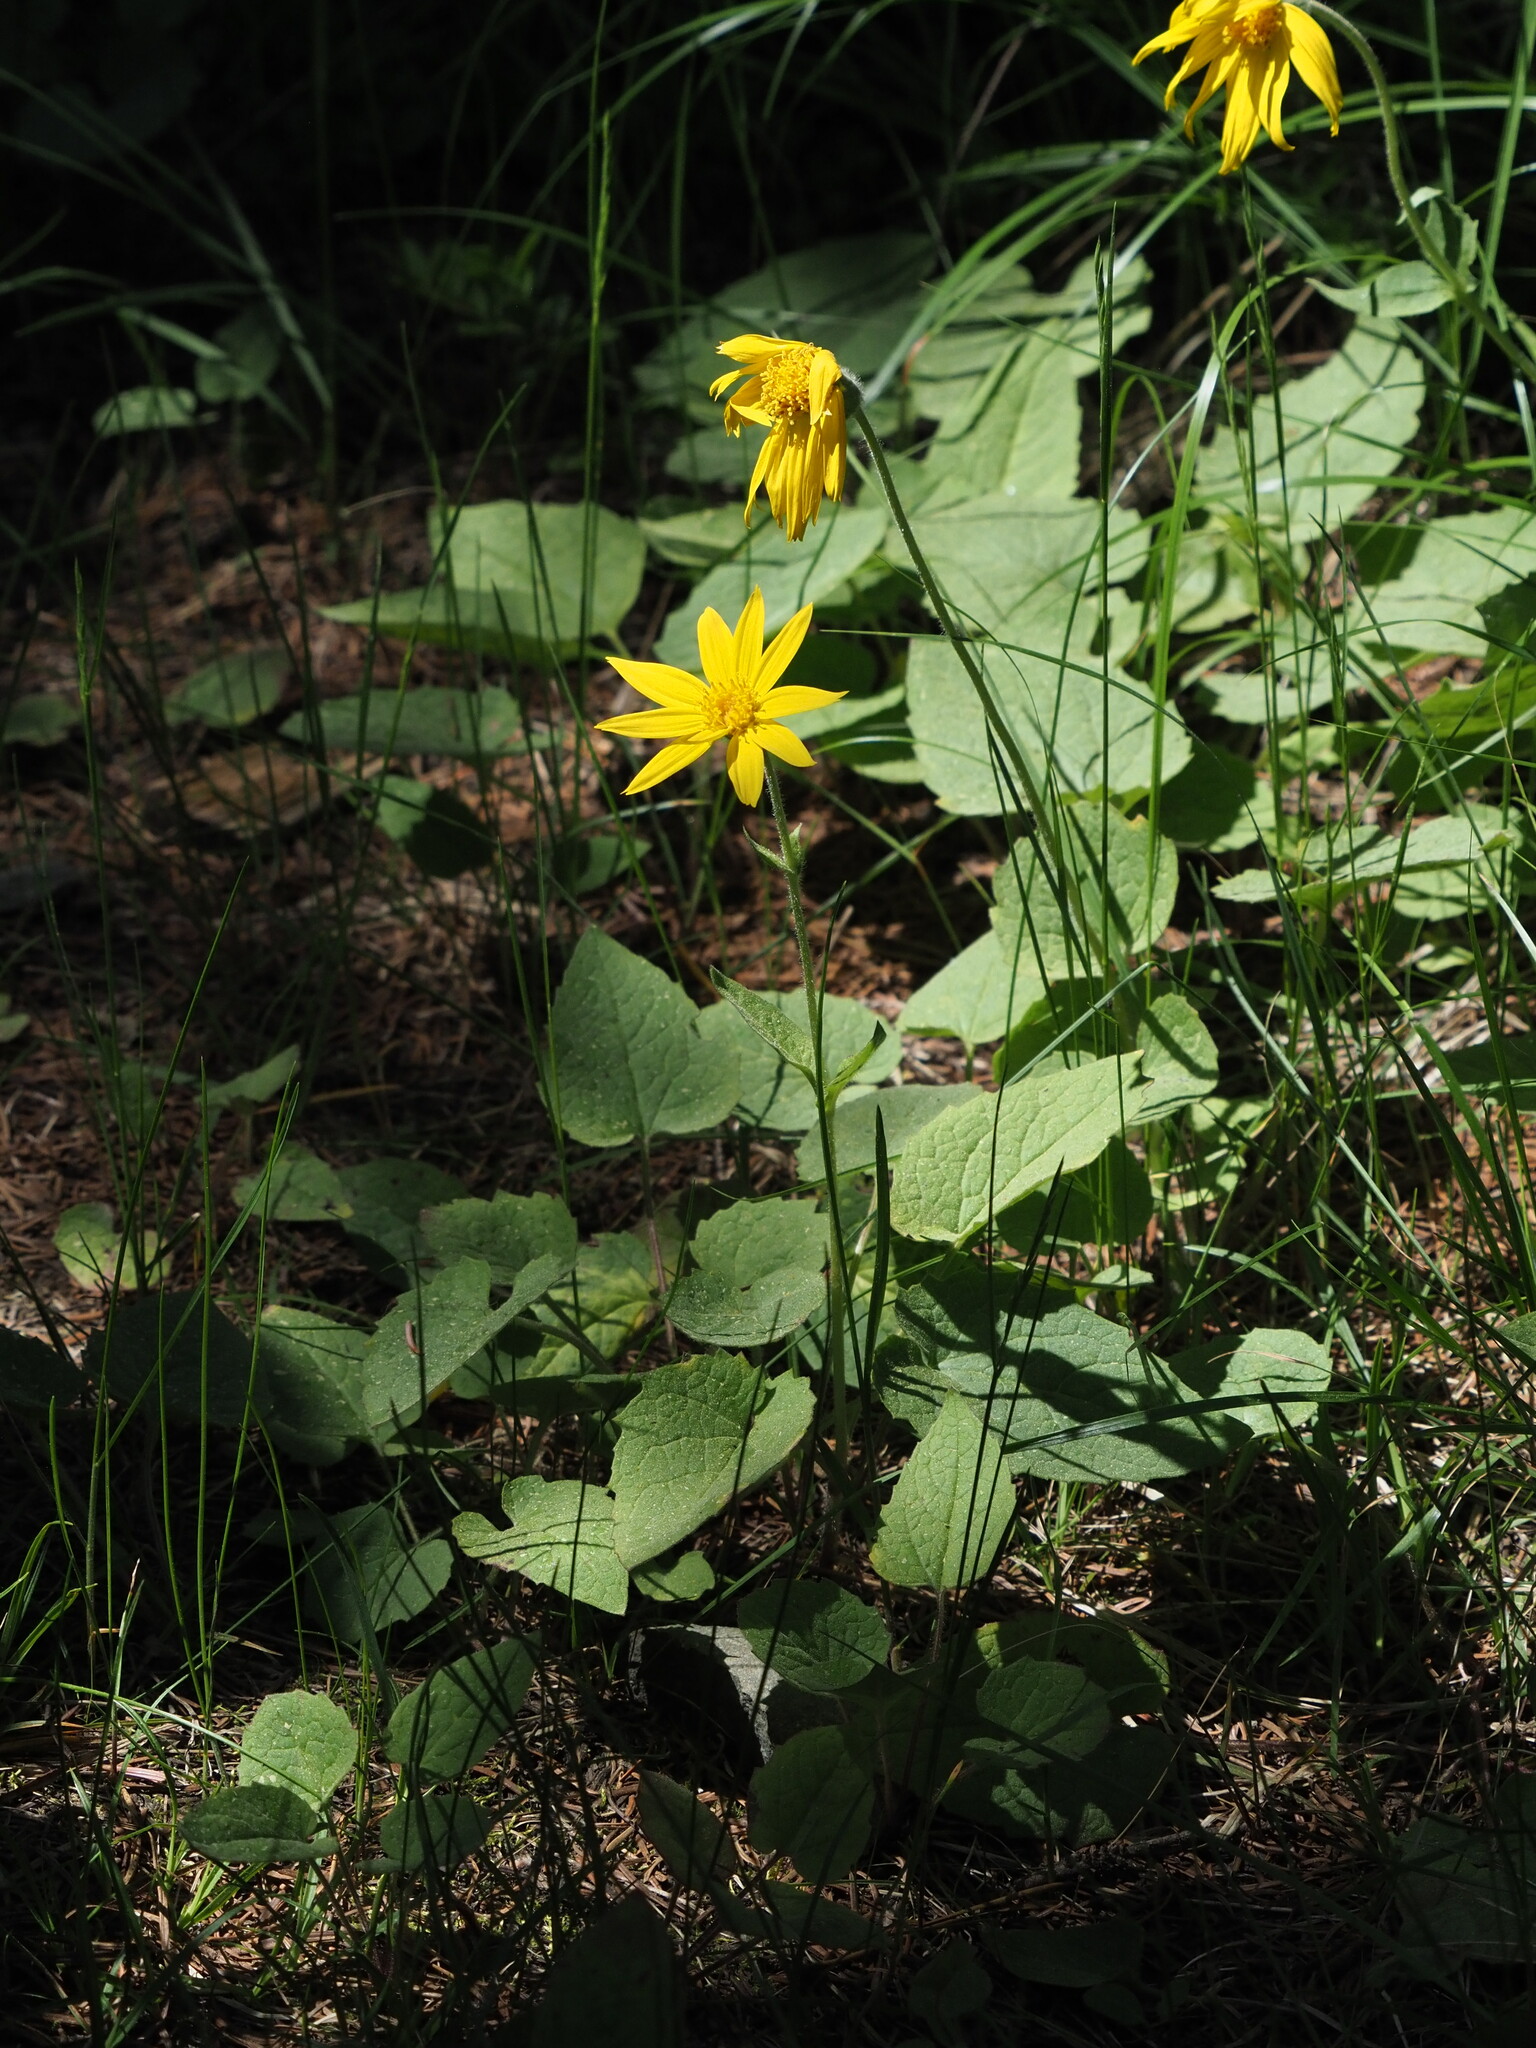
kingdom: Plantae
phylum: Tracheophyta
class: Magnoliopsida
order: Asterales
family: Asteraceae
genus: Arnica
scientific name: Arnica cordifolia
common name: Heart-leaf arnica
